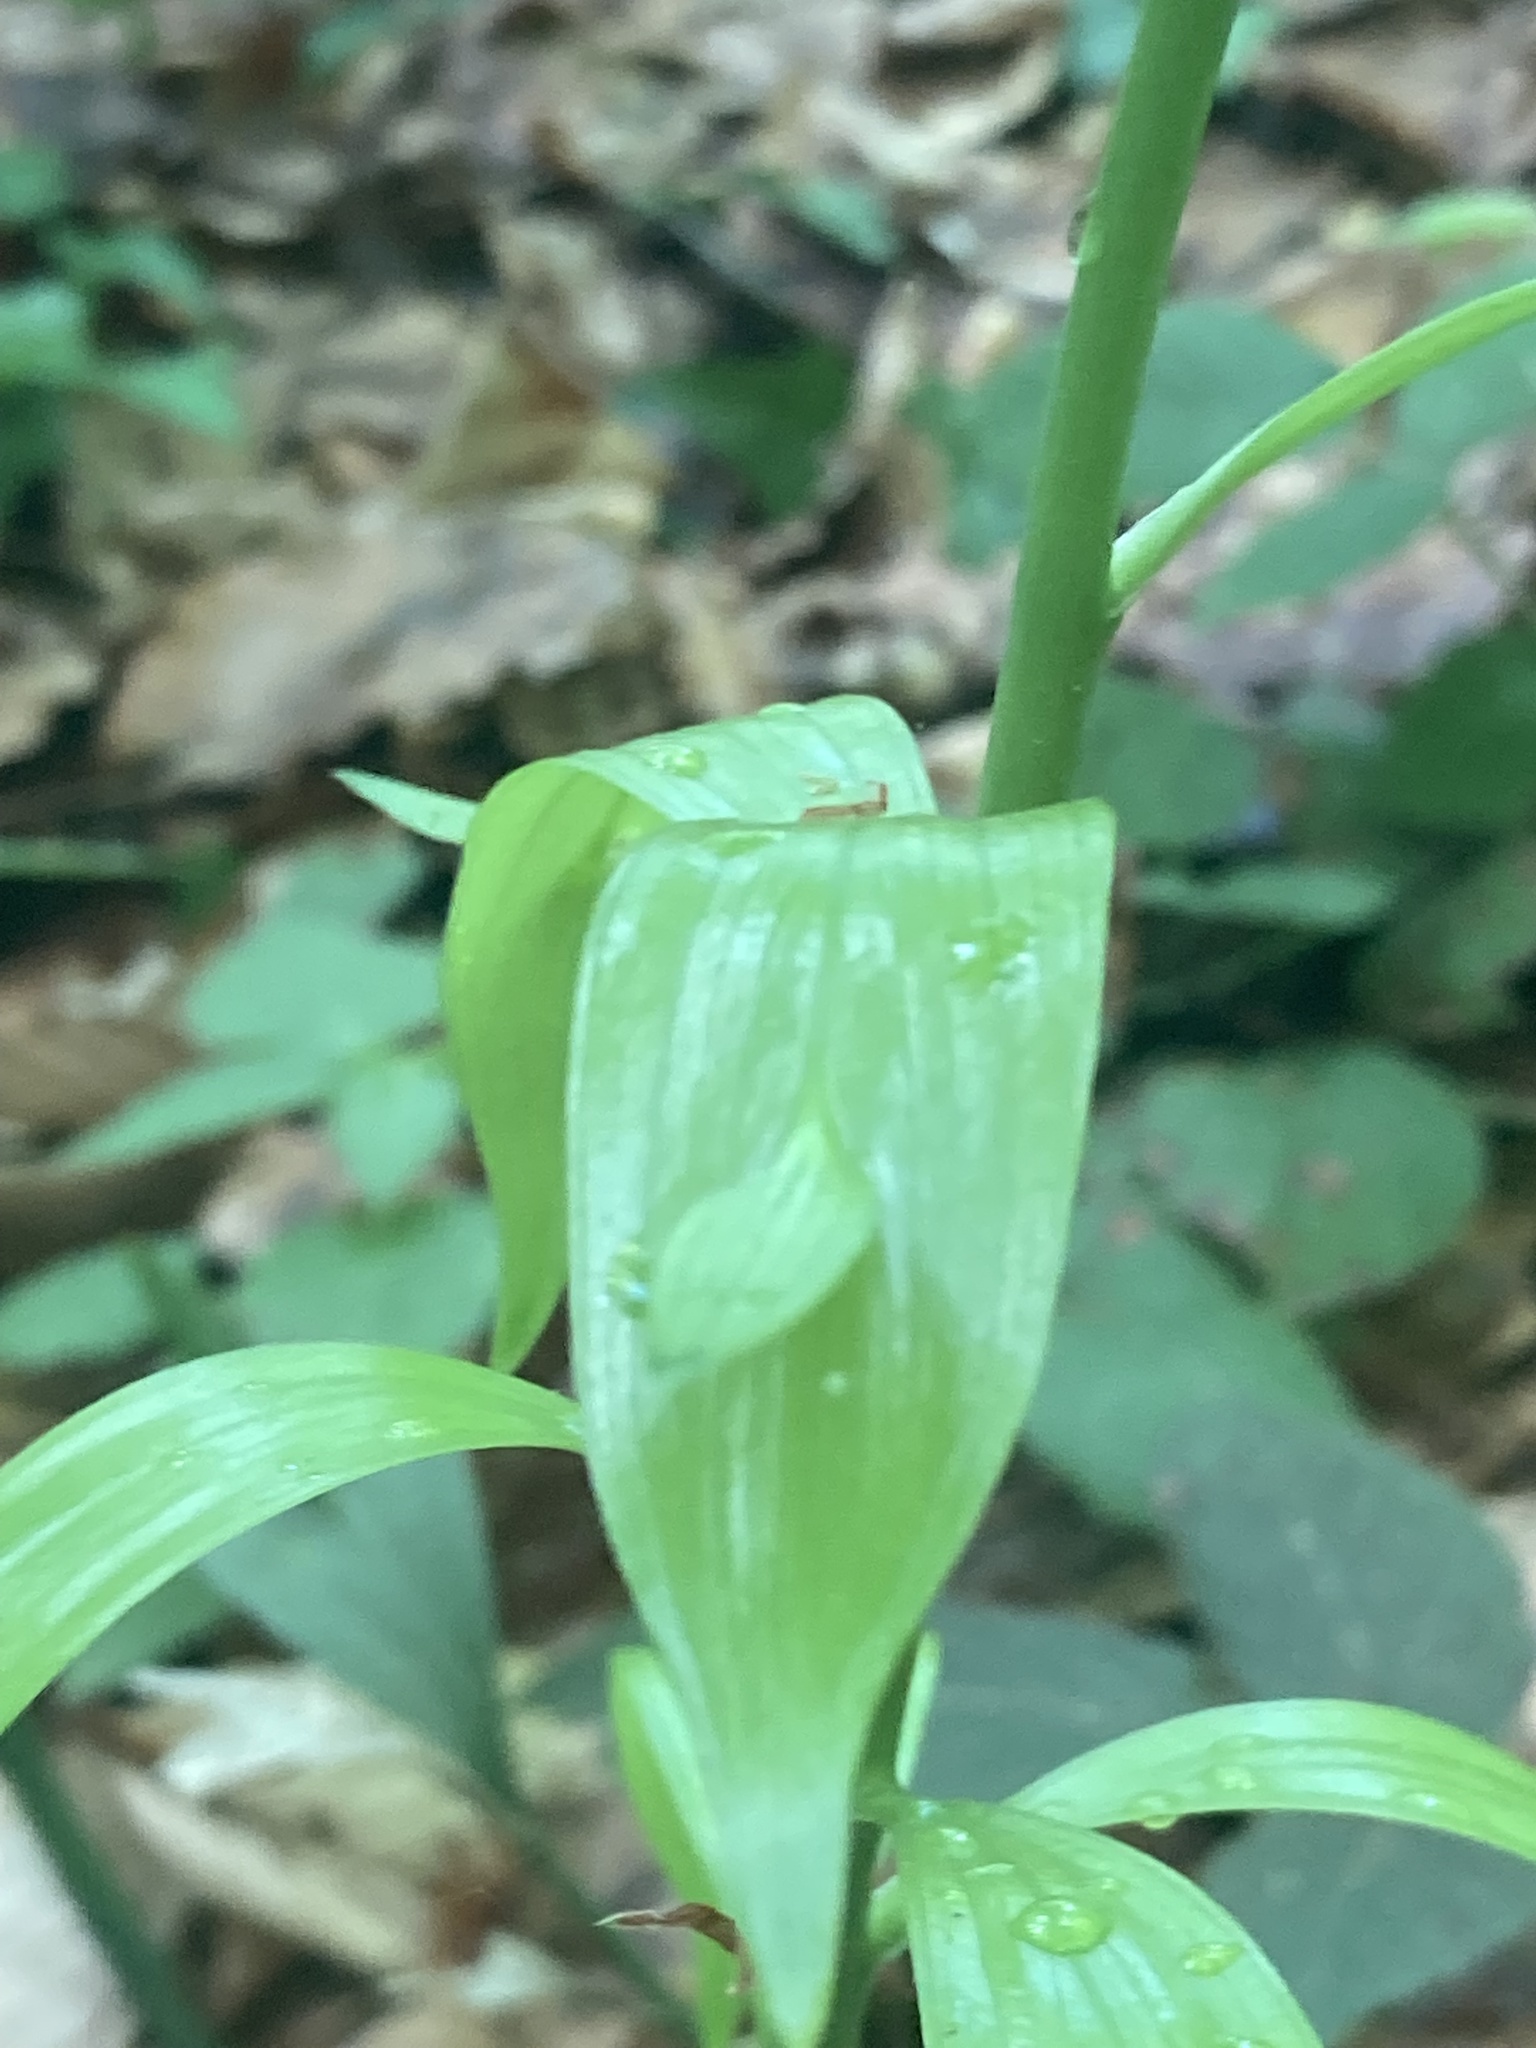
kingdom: Plantae
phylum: Tracheophyta
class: Liliopsida
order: Asparagales
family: Asparagaceae
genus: Ruscus
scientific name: Ruscus hypoglossum
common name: Spineless butcher's-broom
